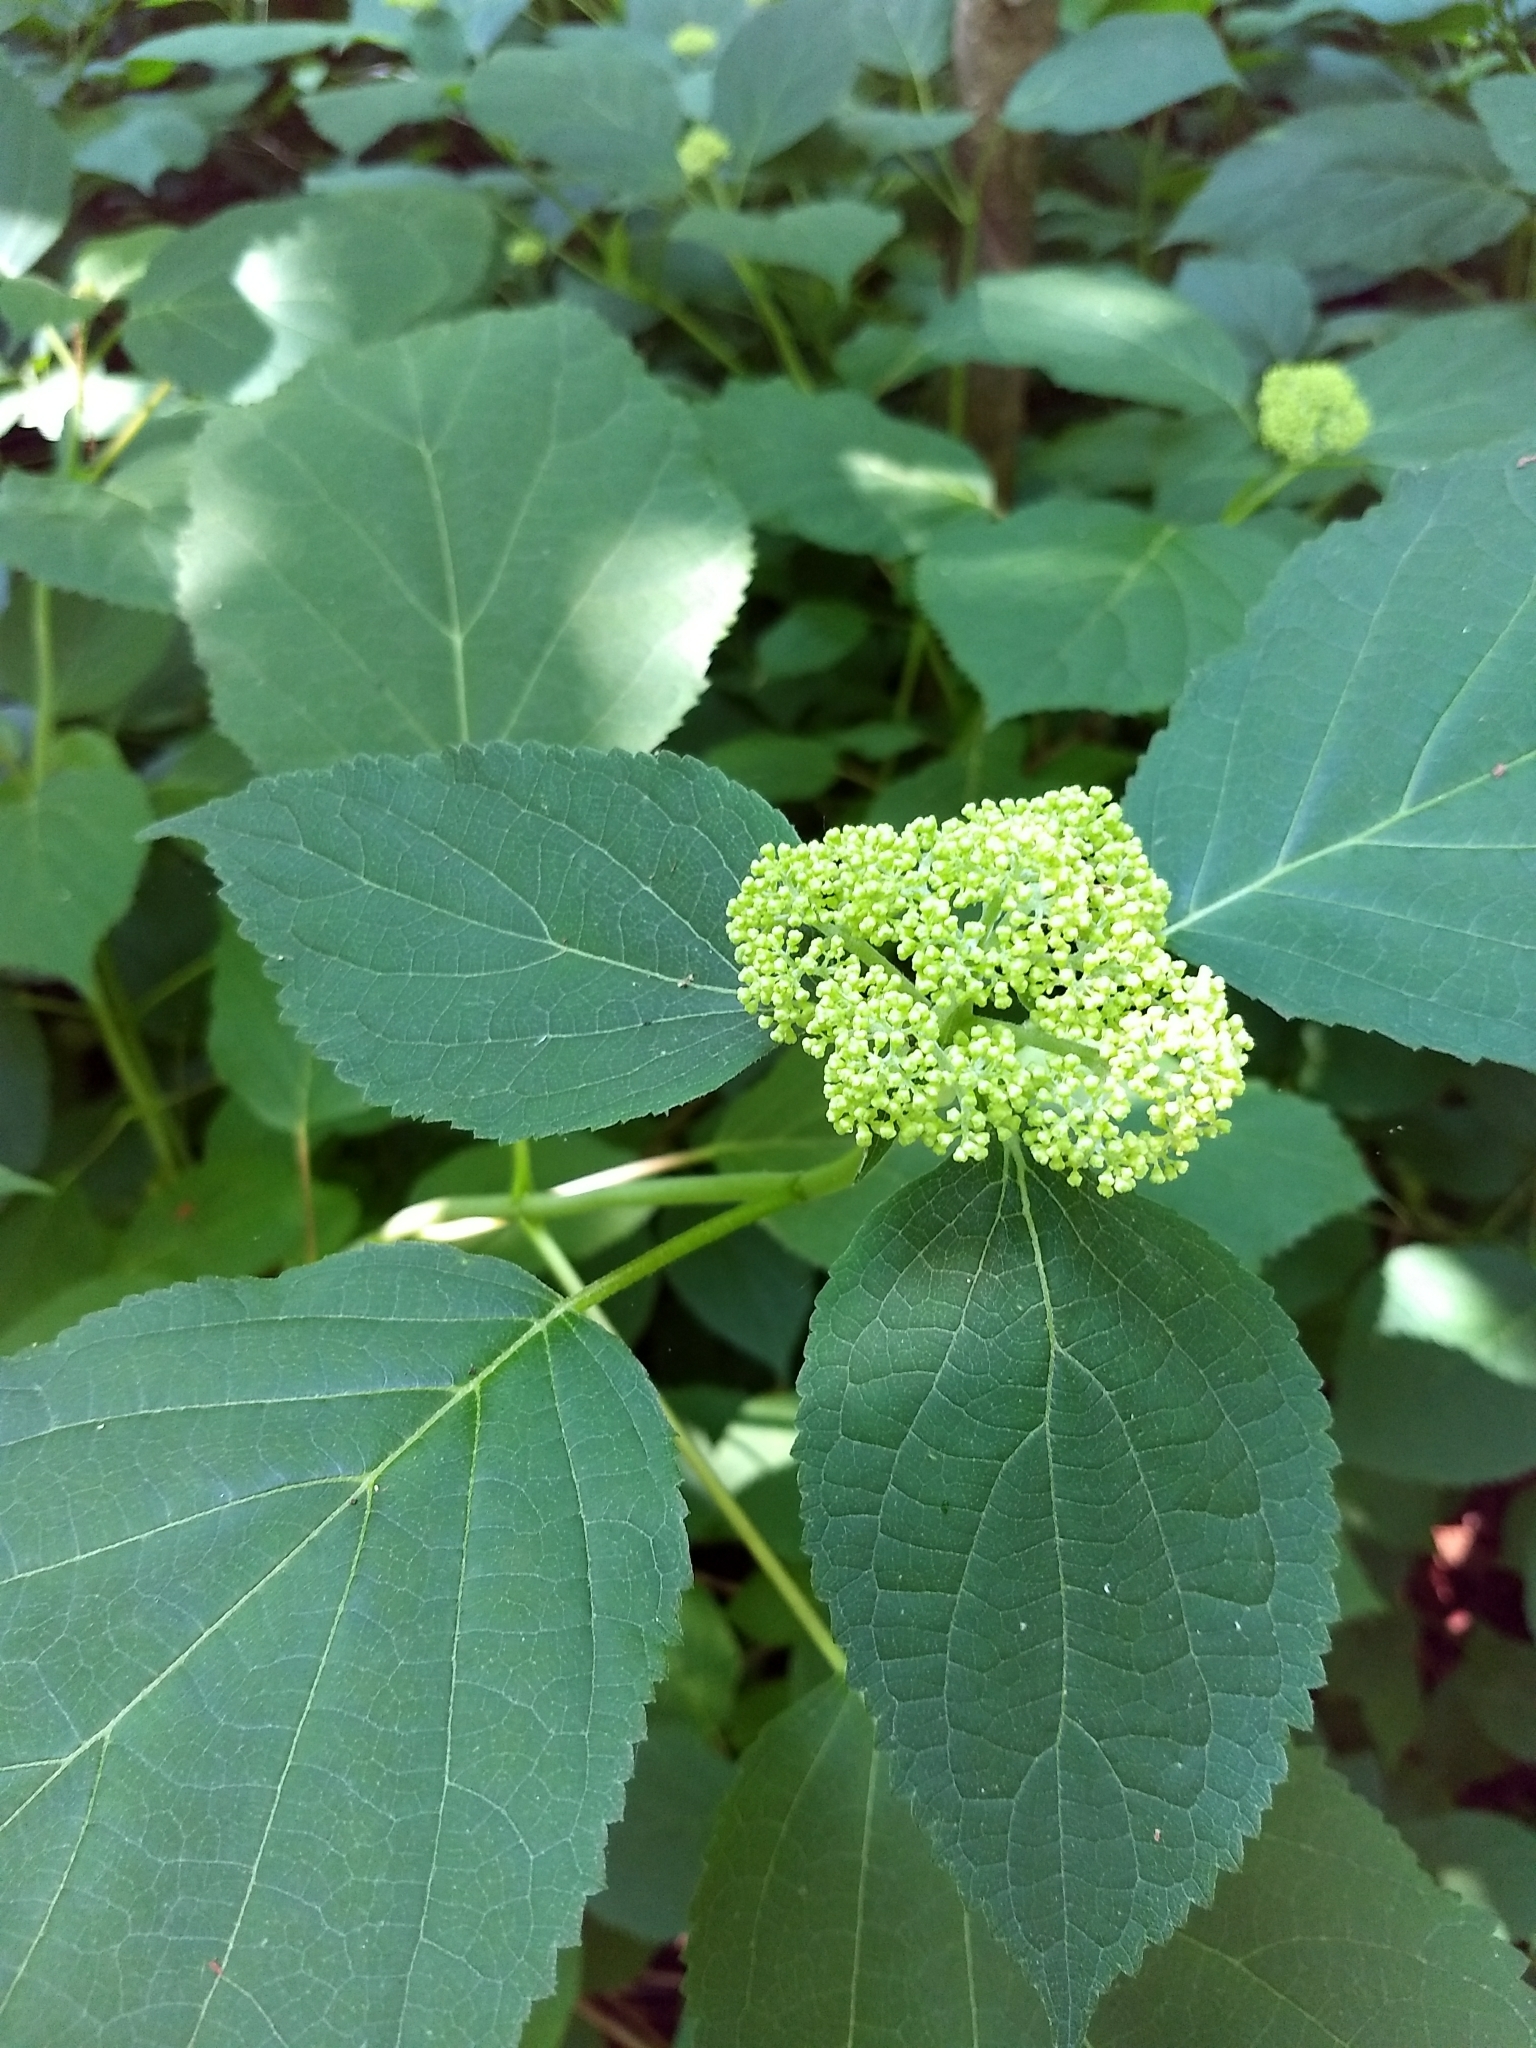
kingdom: Plantae
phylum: Tracheophyta
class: Magnoliopsida
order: Cornales
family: Hydrangeaceae
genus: Hydrangea
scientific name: Hydrangea arborescens
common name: Sevenbark
